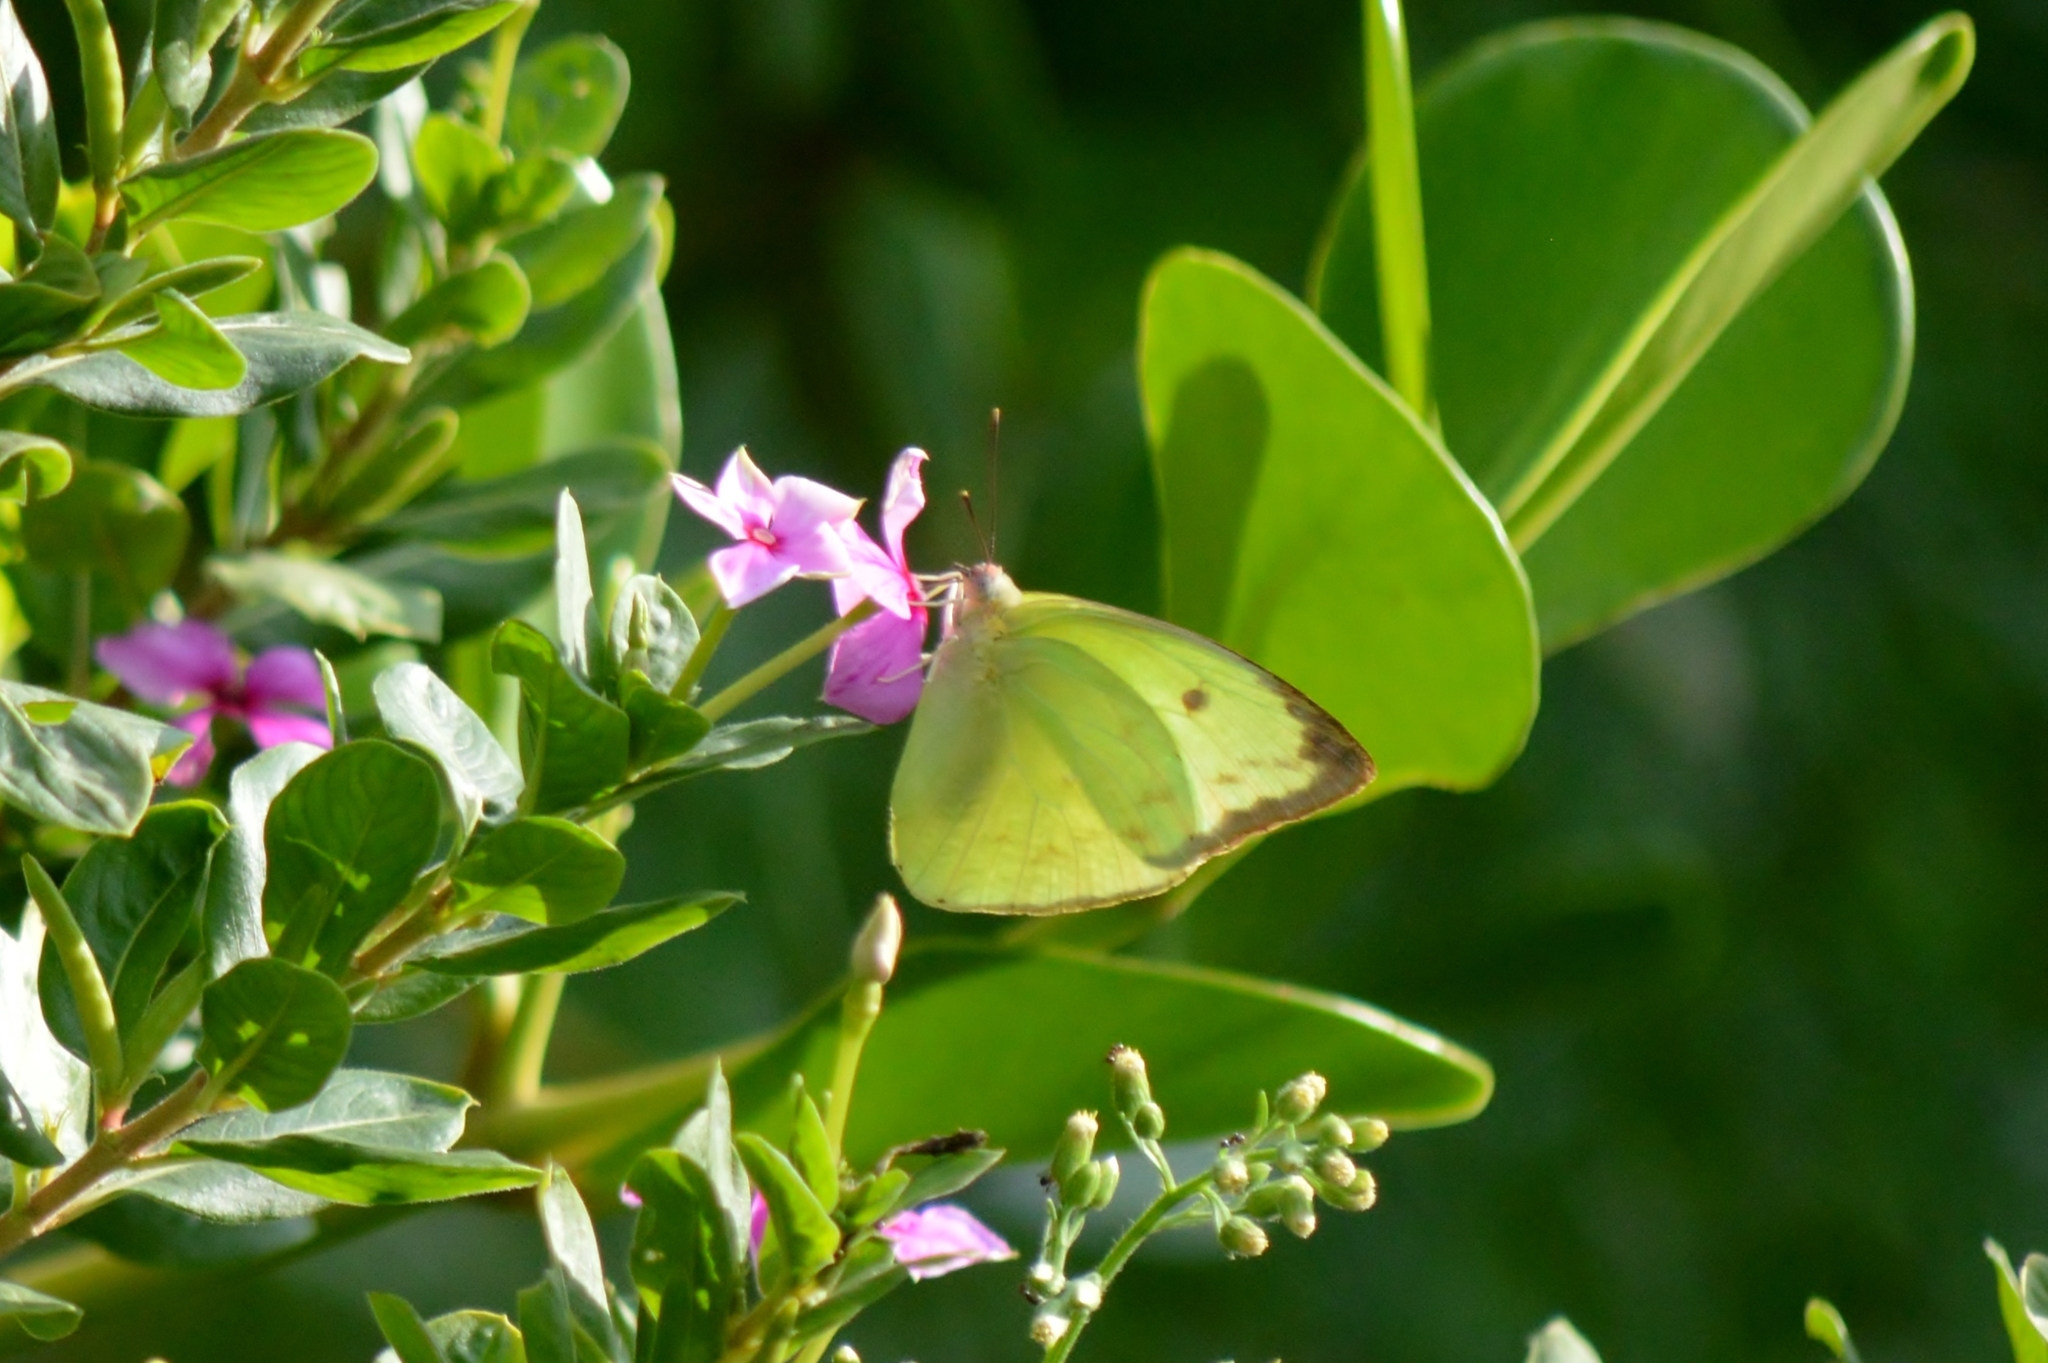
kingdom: Animalia
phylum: Arthropoda
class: Insecta
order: Lepidoptera
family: Pieridae
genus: Aphrissa
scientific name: Aphrissa statira
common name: Statira sulphur
